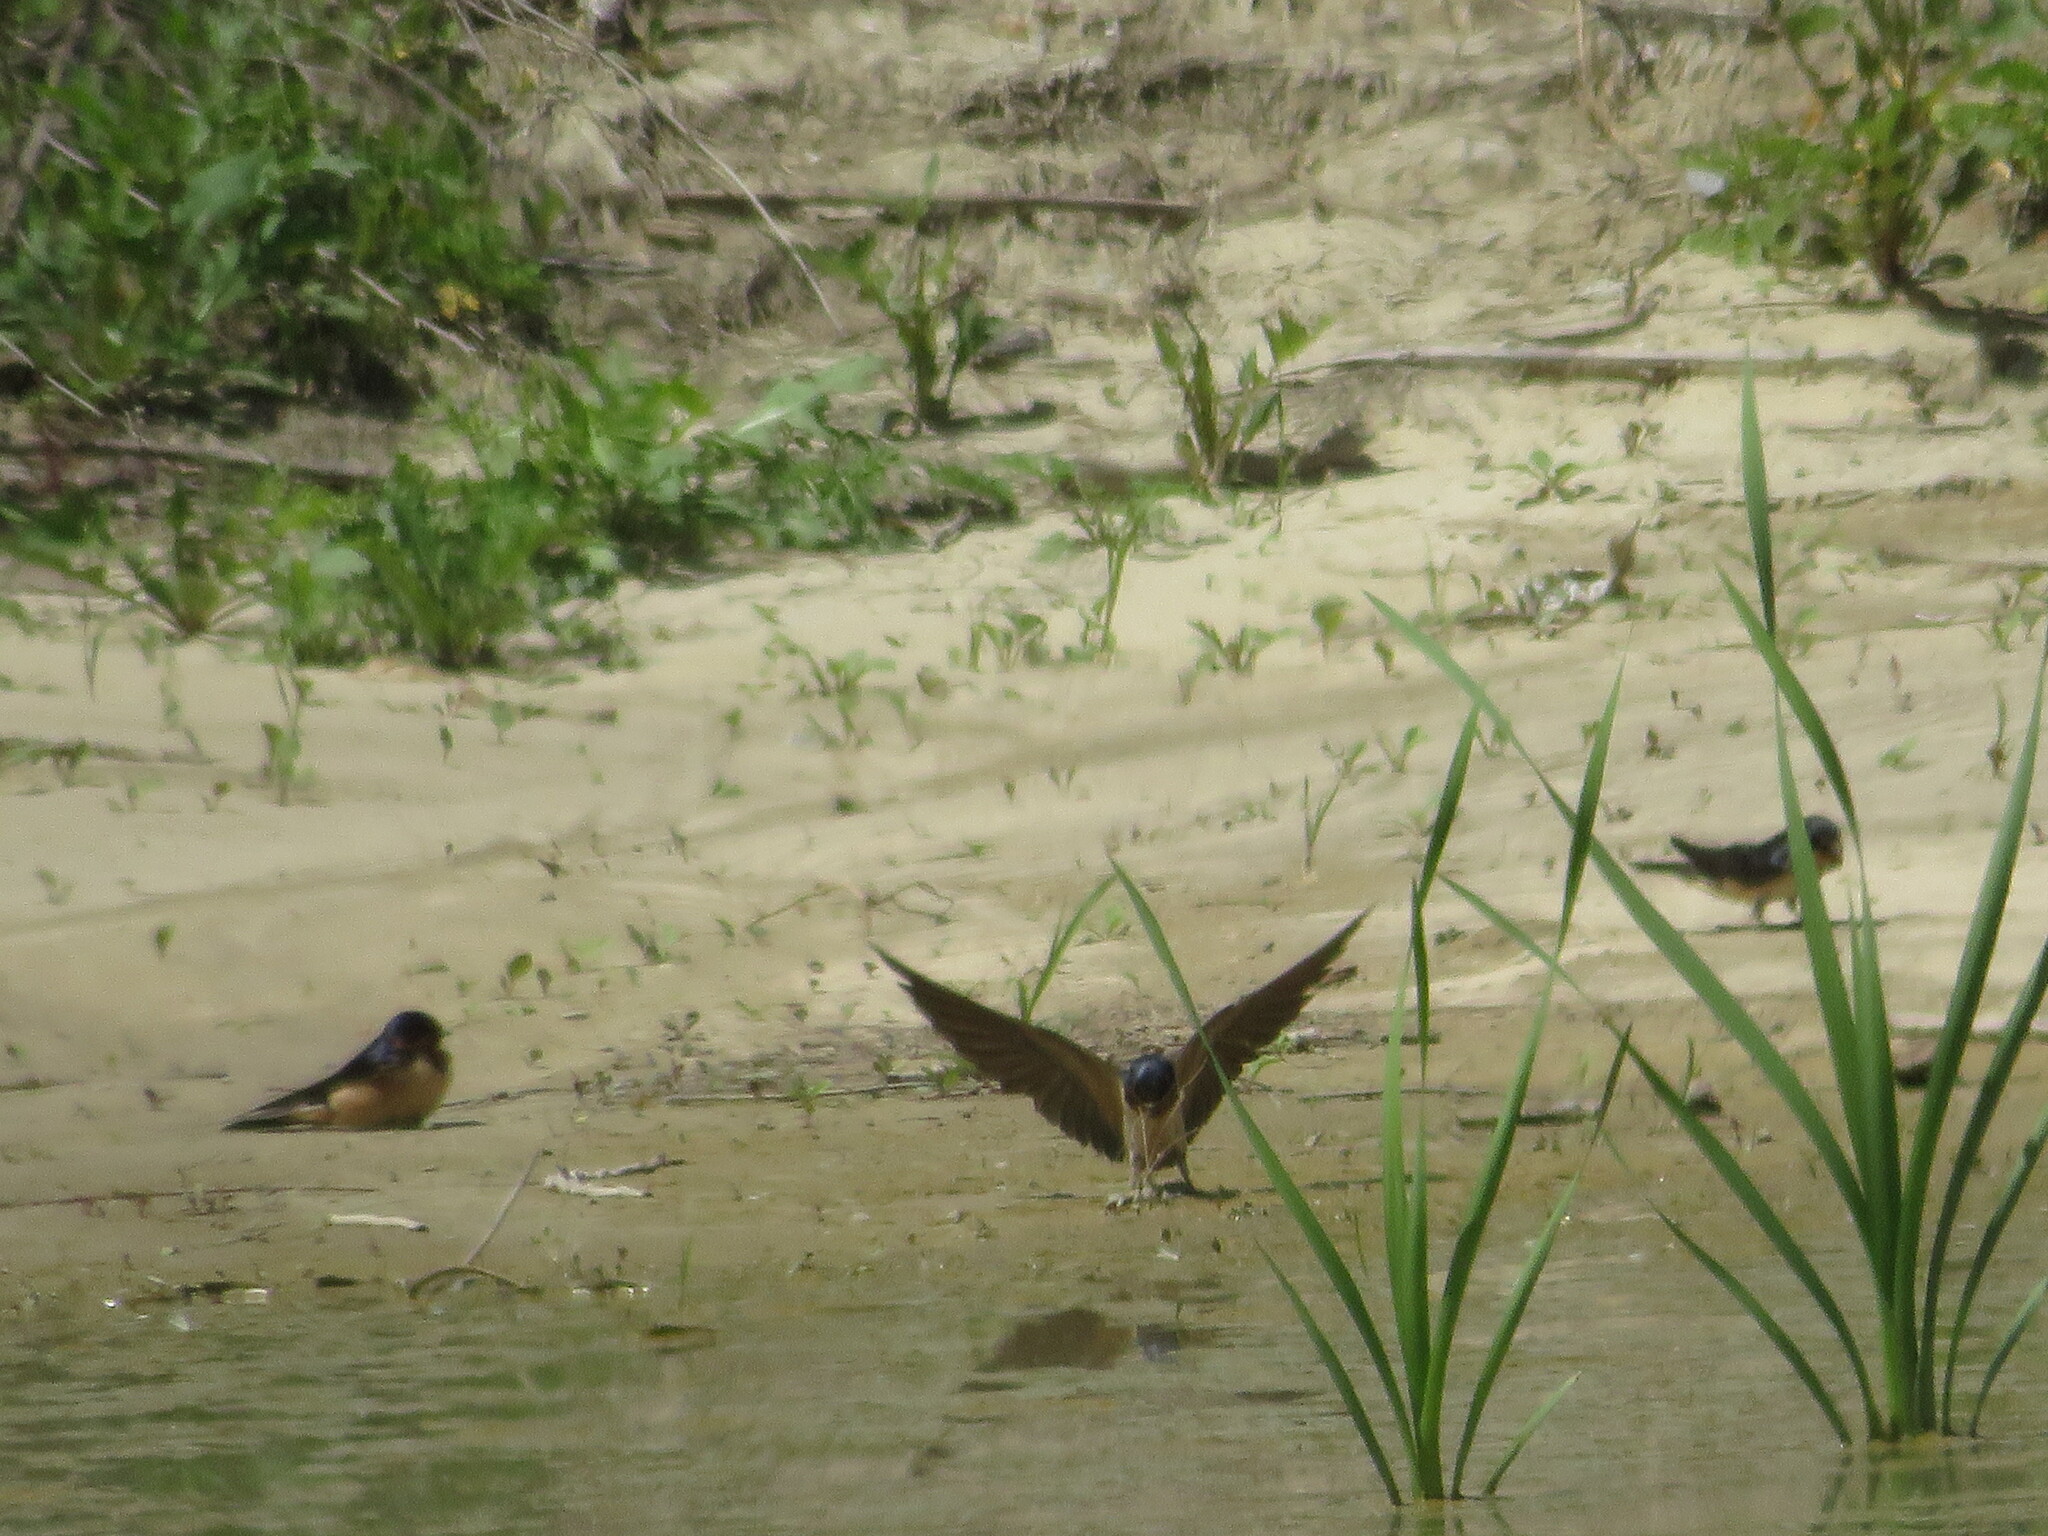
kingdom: Animalia
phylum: Chordata
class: Aves
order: Passeriformes
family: Hirundinidae
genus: Hirundo
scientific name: Hirundo rustica
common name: Barn swallow
